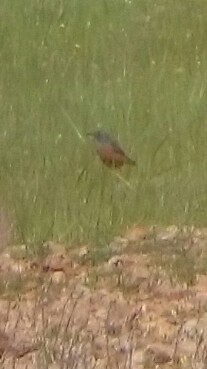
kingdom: Animalia
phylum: Chordata
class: Aves
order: Passeriformes
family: Muscicapidae
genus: Monticola
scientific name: Monticola saxatilis
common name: Rufous-tailed rock thrush
